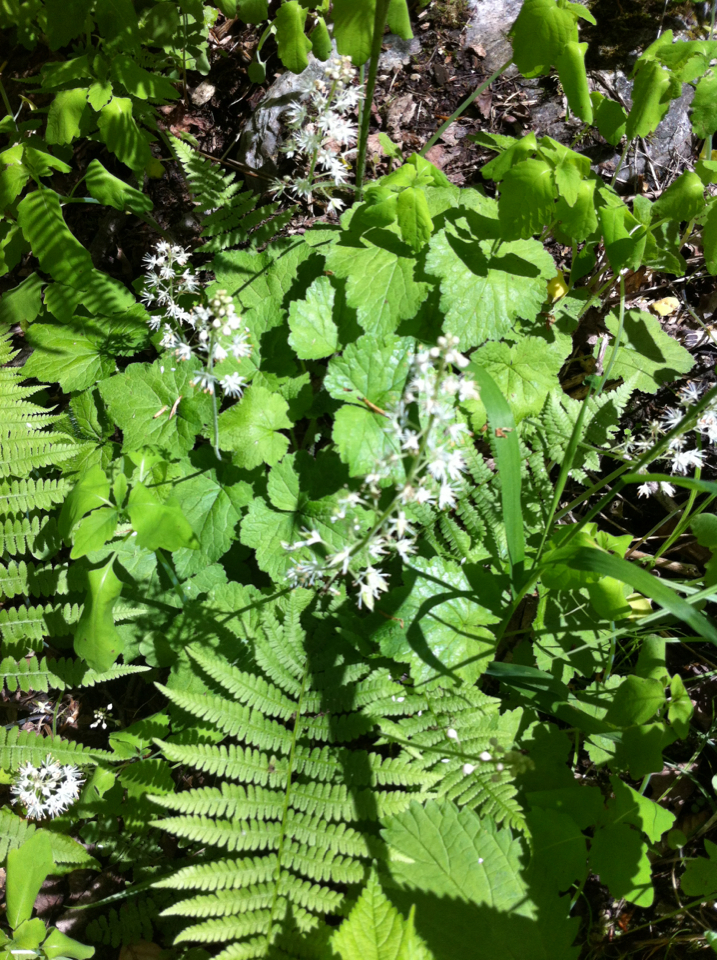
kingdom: Plantae
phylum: Tracheophyta
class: Magnoliopsida
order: Saxifragales
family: Saxifragaceae
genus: Tiarella
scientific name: Tiarella stolonifera
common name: Stoloniferous foamflower
